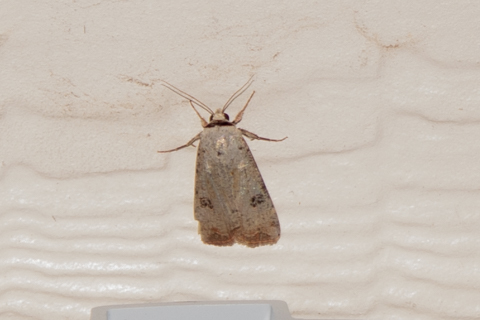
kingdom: Animalia
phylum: Arthropoda
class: Insecta
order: Lepidoptera
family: Noctuidae
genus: Anicla
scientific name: Anicla infecta
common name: Green cutworm
